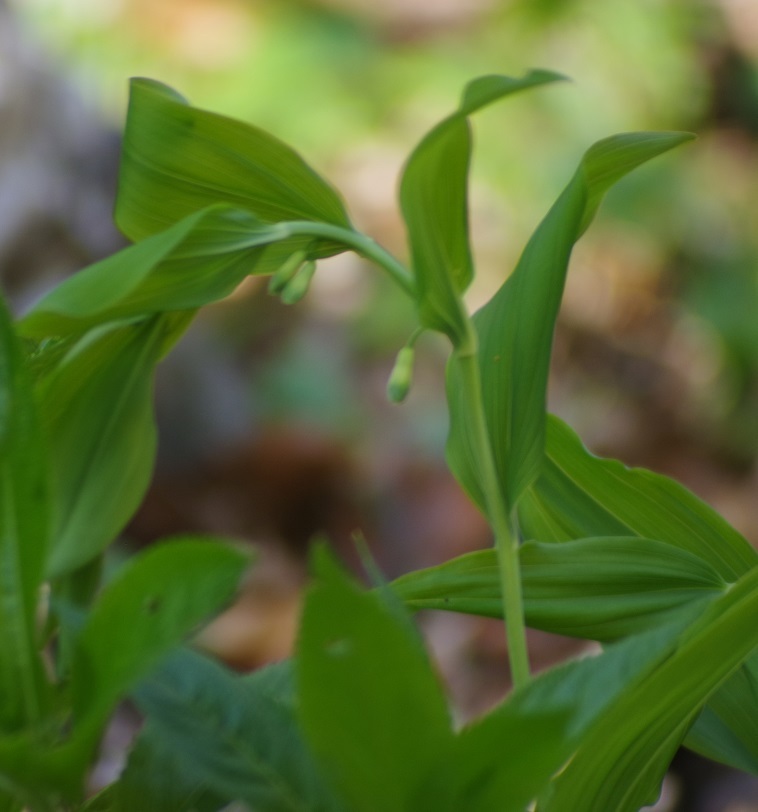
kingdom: Plantae
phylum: Tracheophyta
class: Liliopsida
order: Asparagales
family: Asparagaceae
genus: Polygonatum
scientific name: Polygonatum multiflorum
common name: Solomon's-seal
